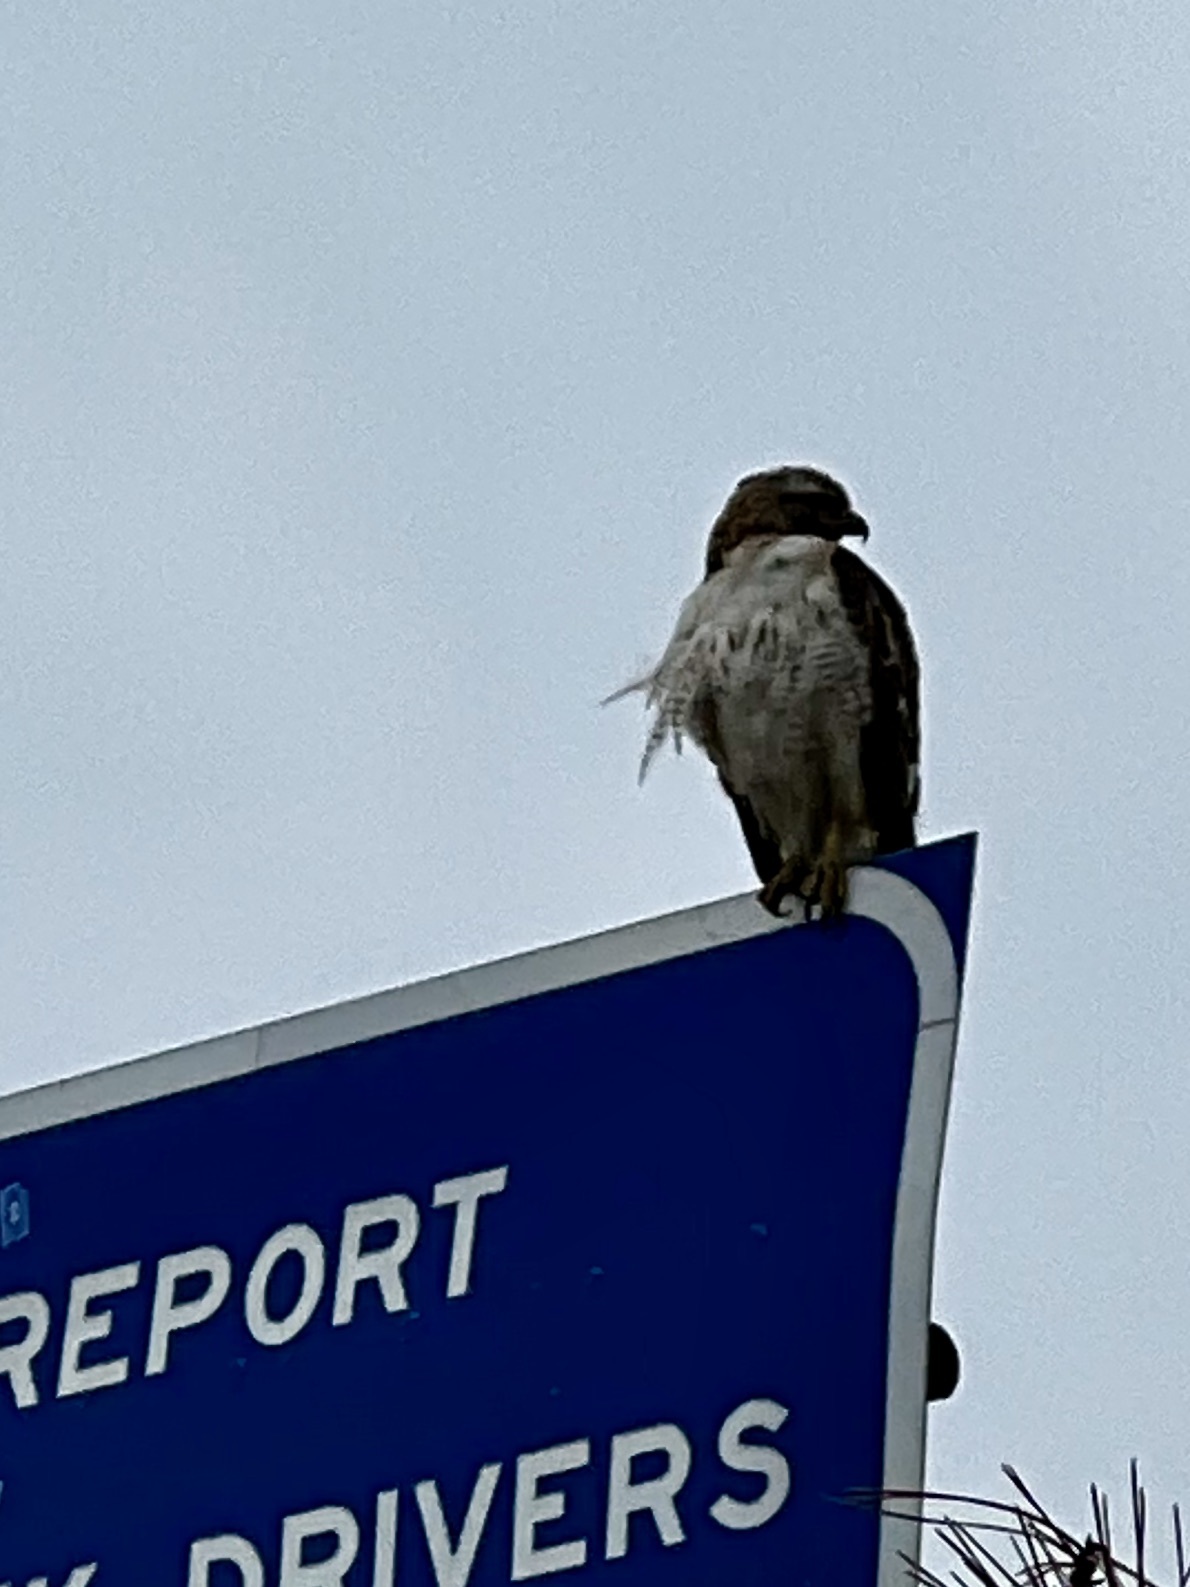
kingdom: Animalia
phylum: Chordata
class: Aves
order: Accipitriformes
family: Accipitridae
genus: Buteo
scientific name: Buteo jamaicensis
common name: Red-tailed hawk
